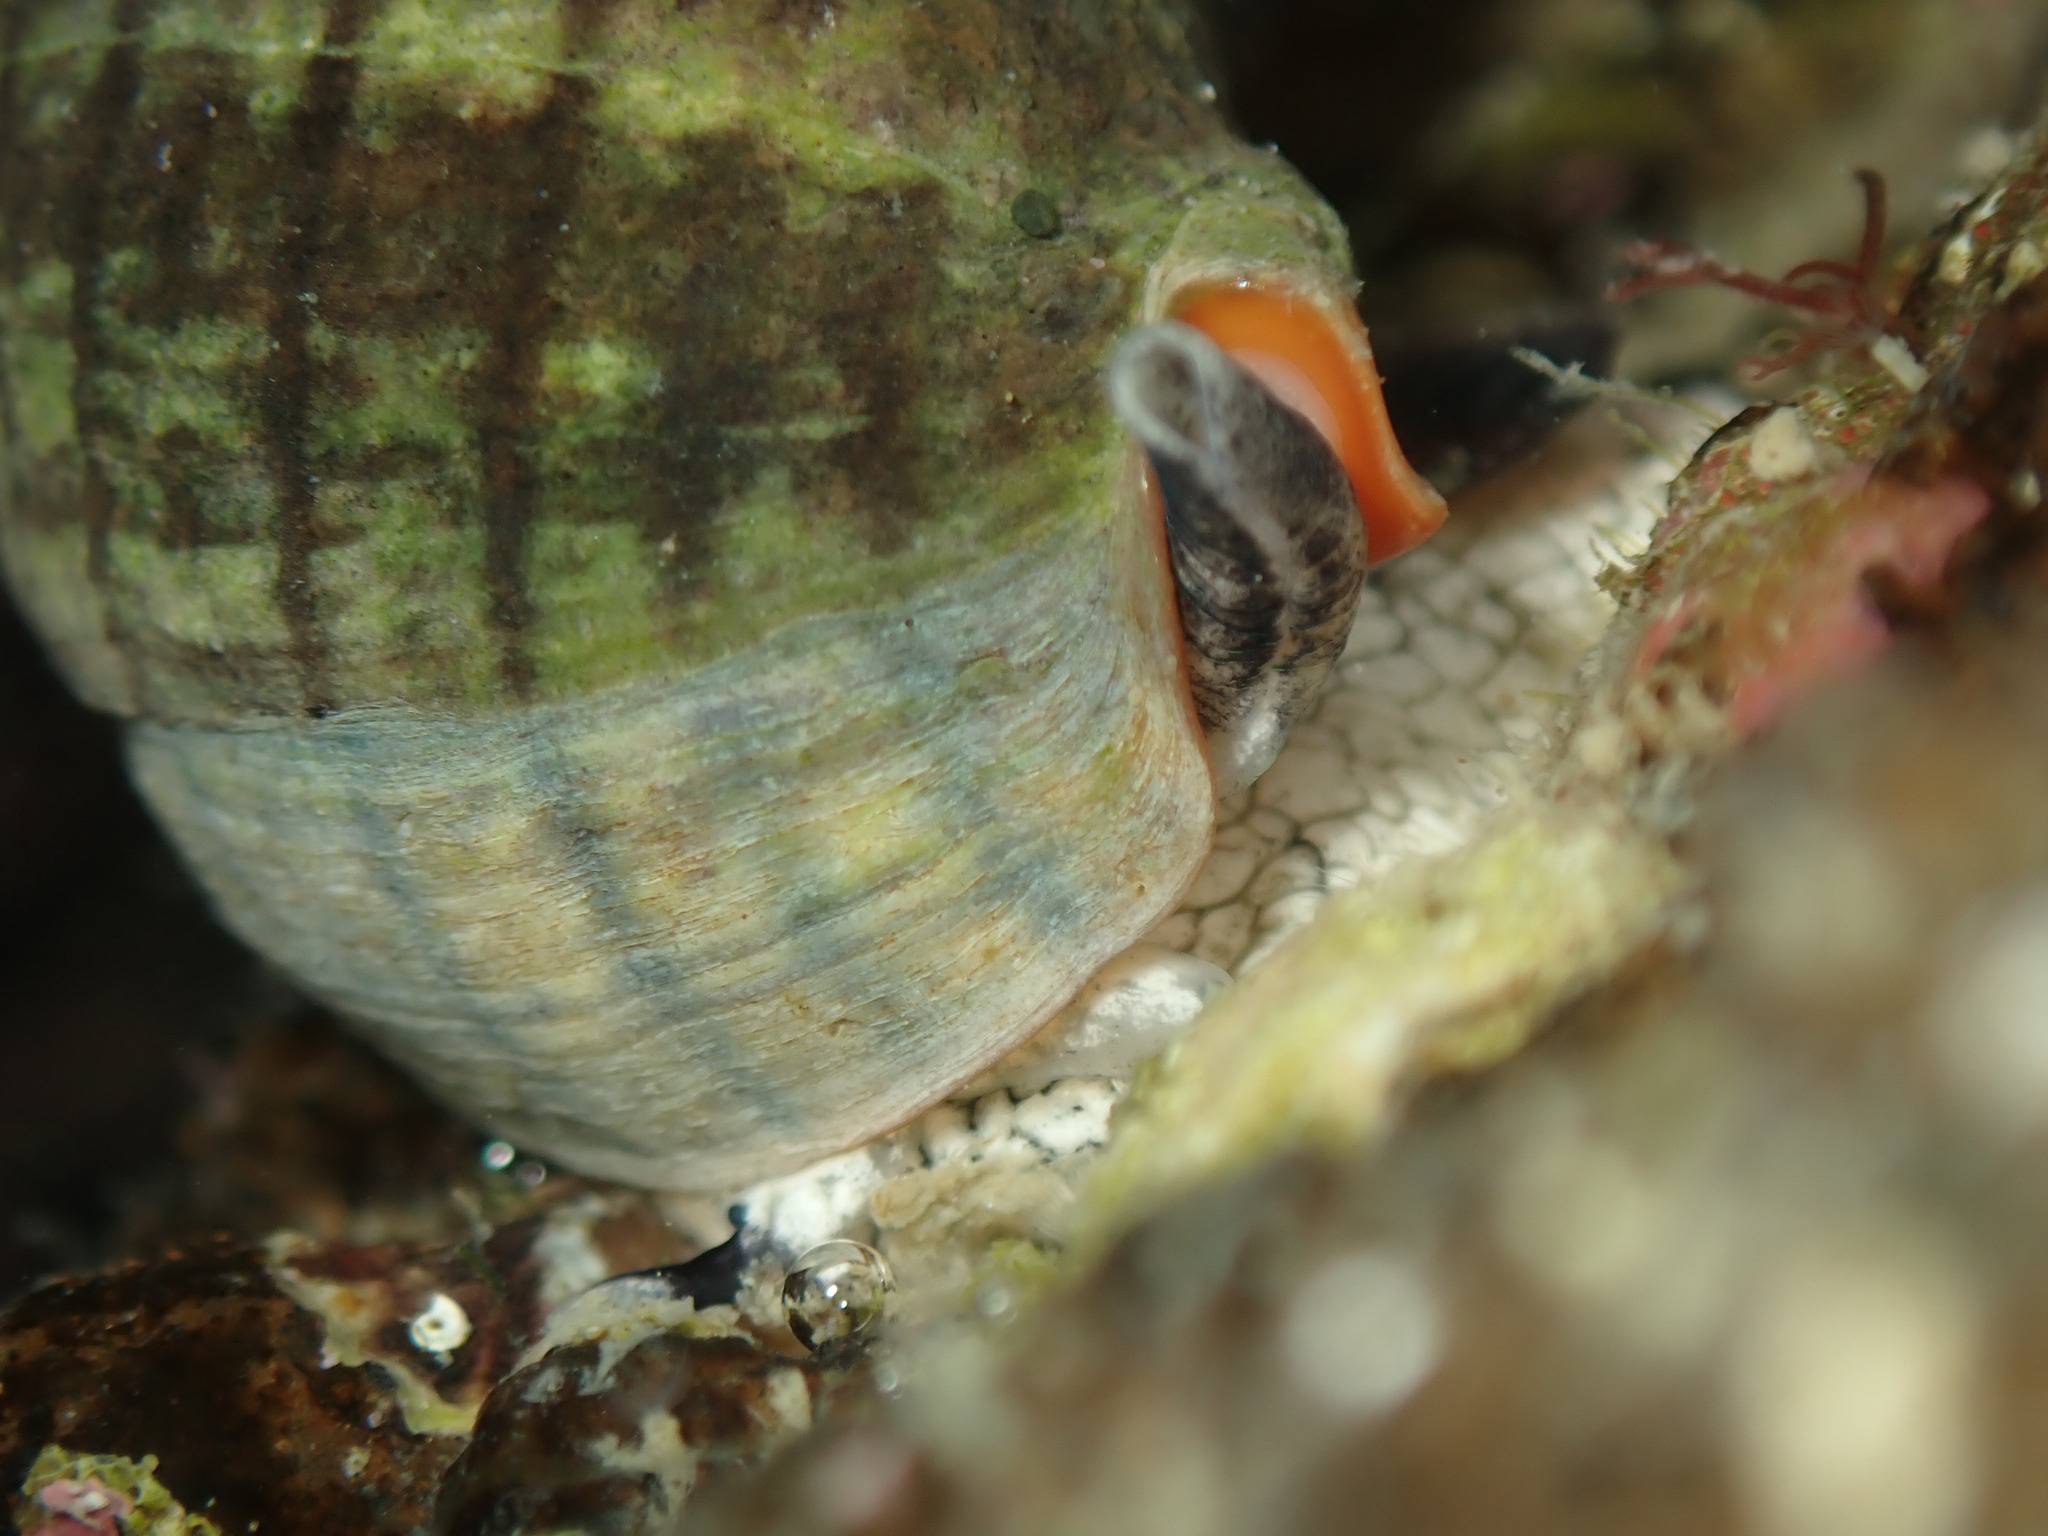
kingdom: Animalia
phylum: Mollusca
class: Gastropoda
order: Neogastropoda
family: Cominellidae
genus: Cominella
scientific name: Cominella virgata
